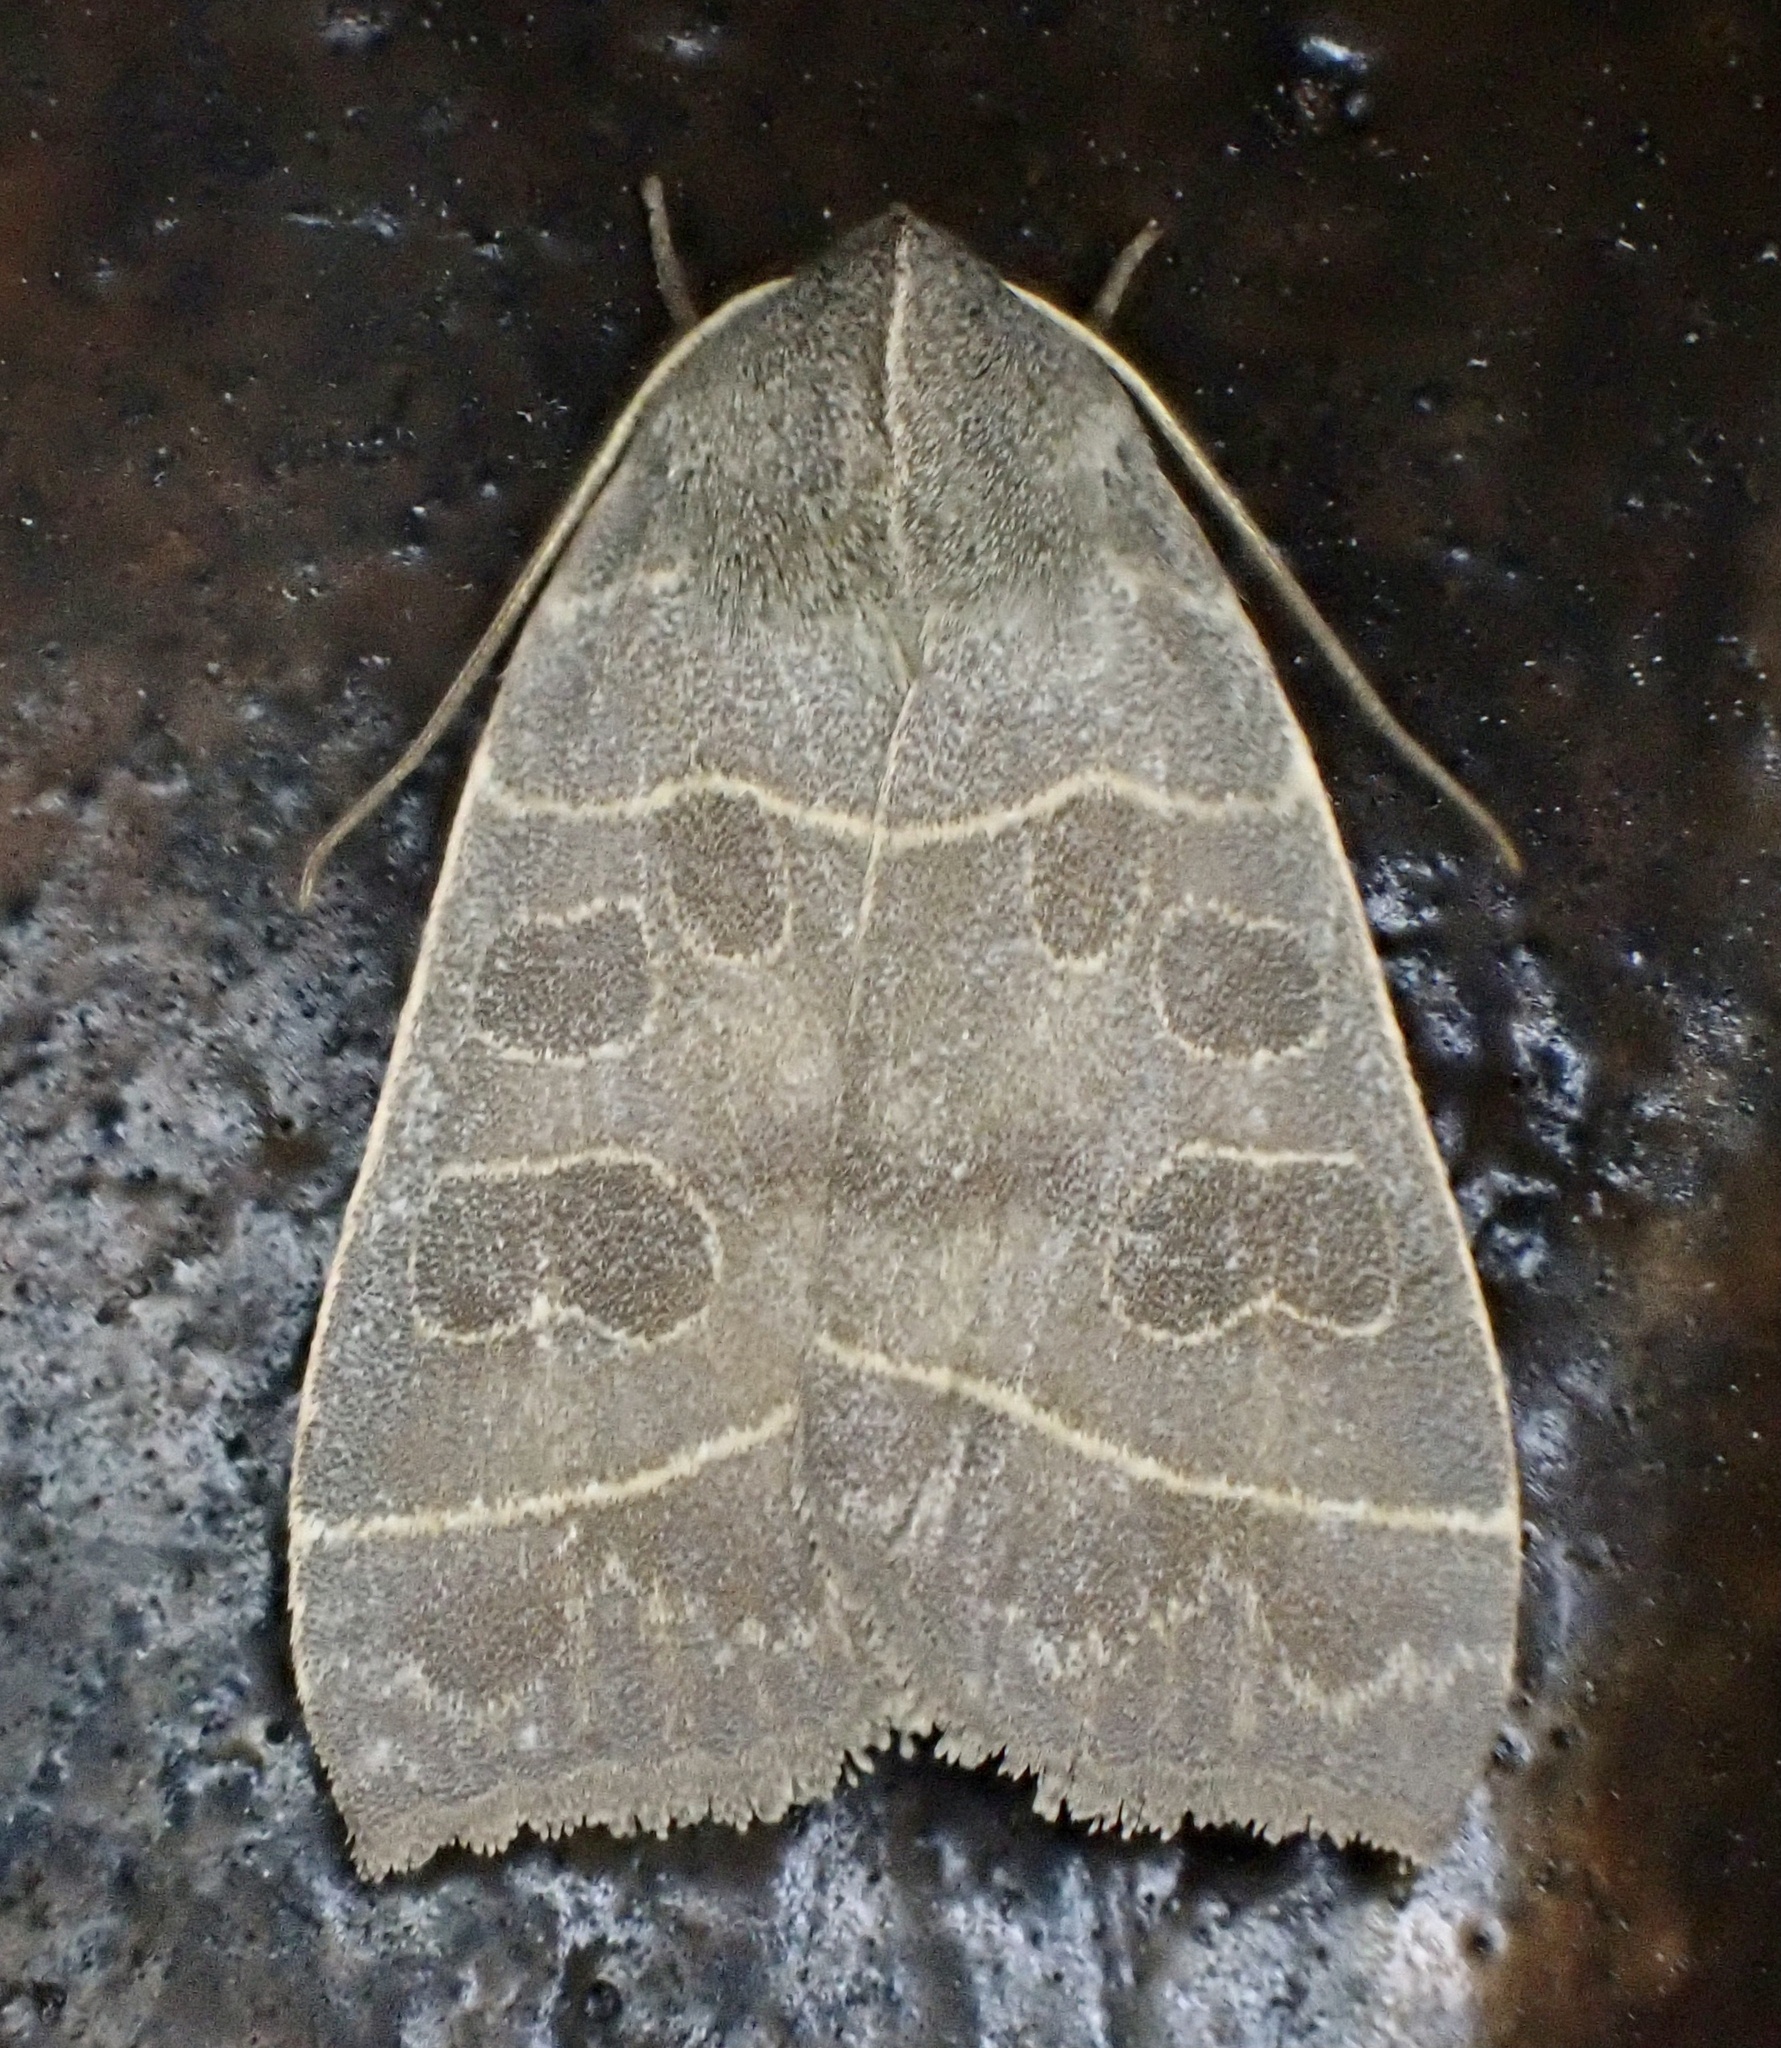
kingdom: Animalia
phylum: Arthropoda
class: Insecta
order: Lepidoptera
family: Noctuidae
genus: Ipimorpha
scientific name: Ipimorpha pleonectusa
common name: Even-lined sallow
